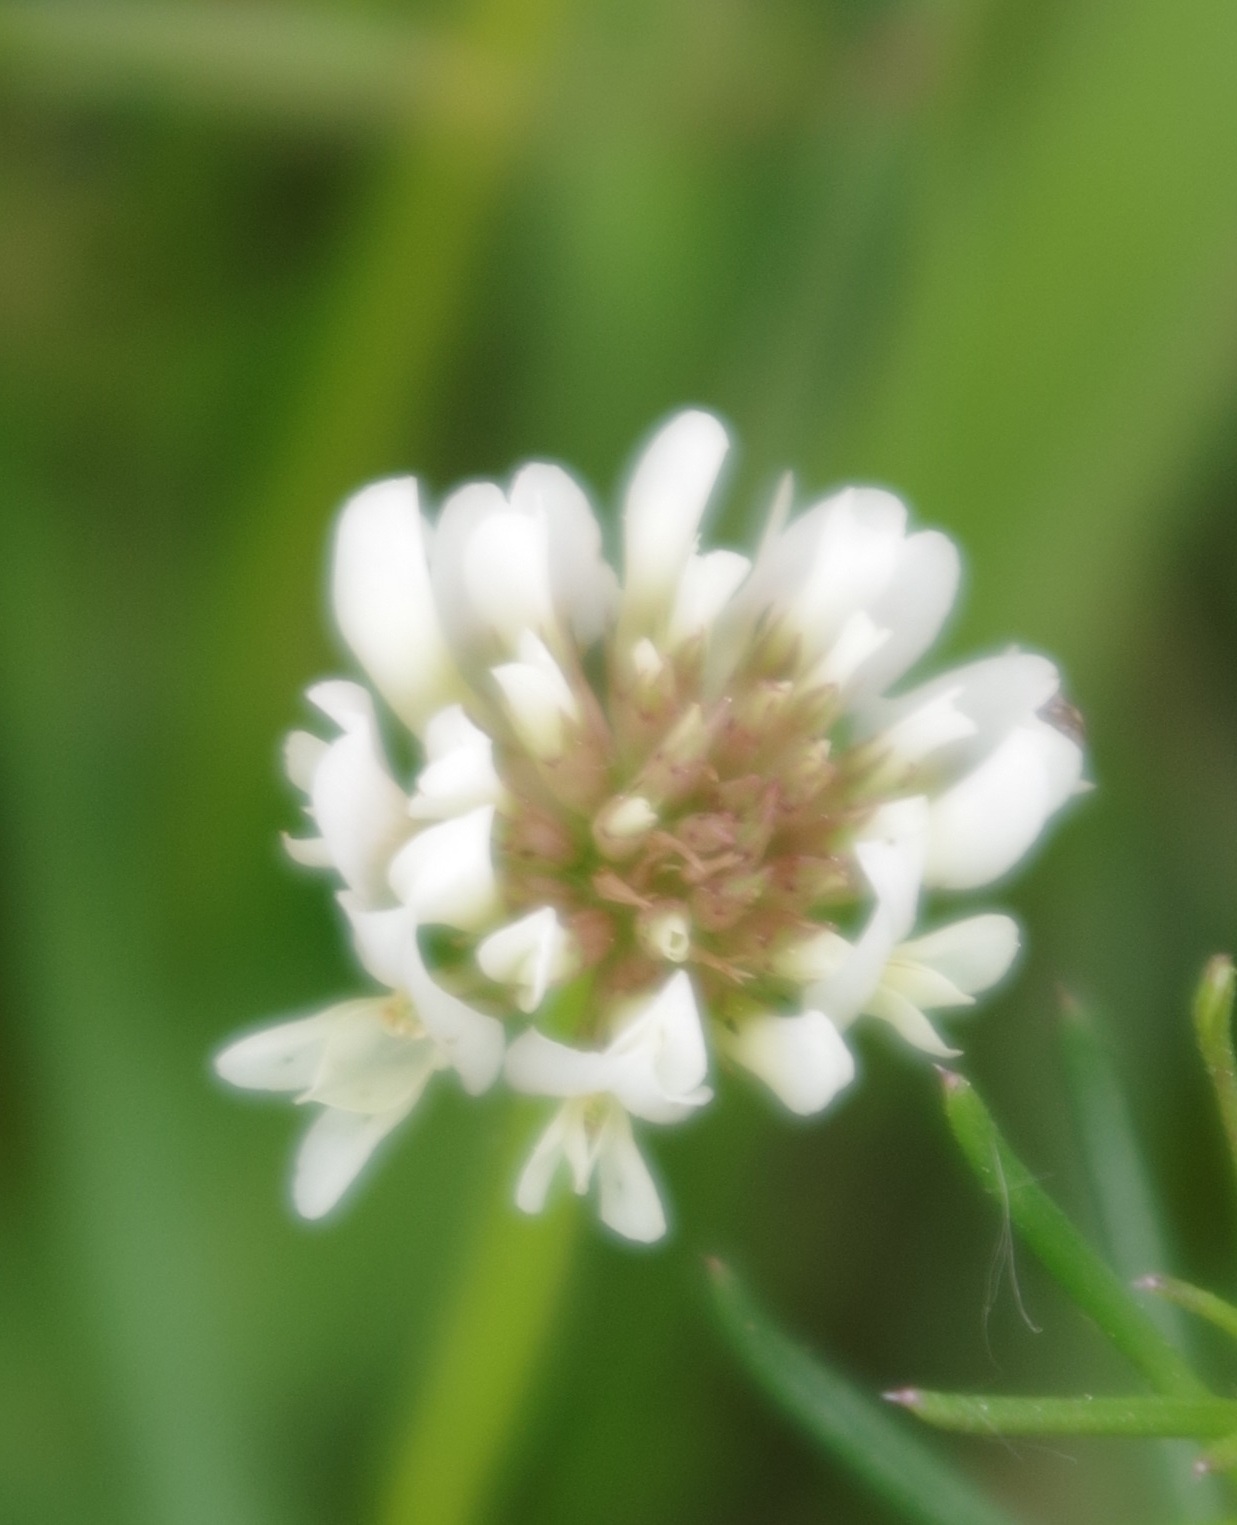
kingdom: Plantae
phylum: Tracheophyta
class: Magnoliopsida
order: Fabales
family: Fabaceae
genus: Trifolium
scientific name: Trifolium repens
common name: White clover
